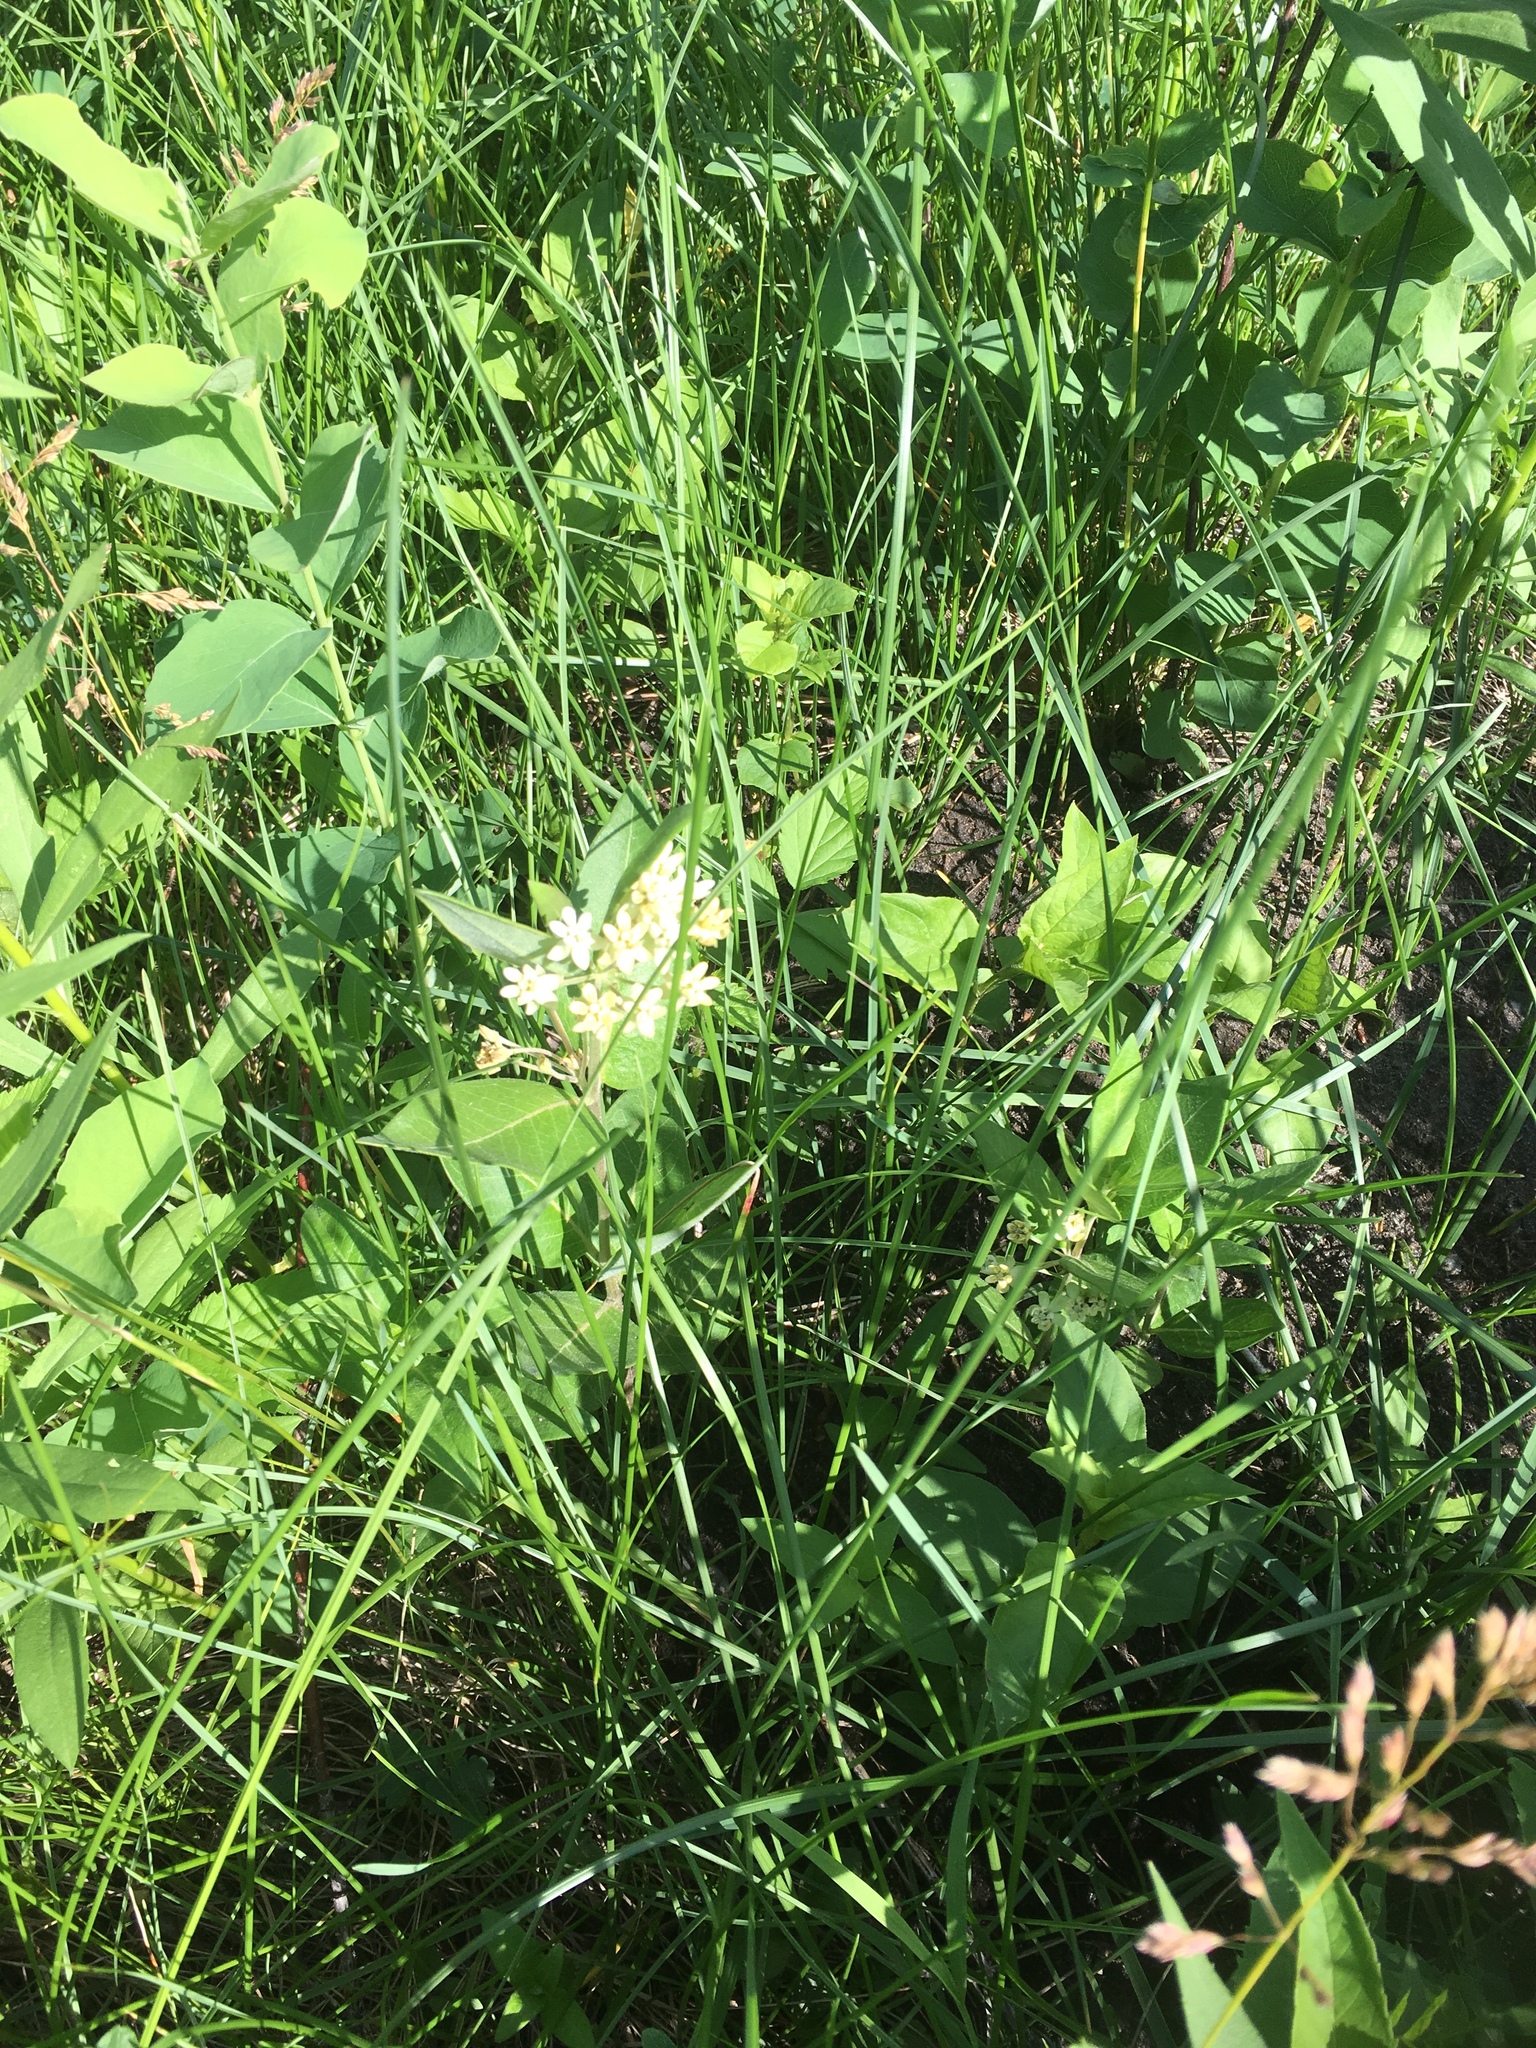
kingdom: Plantae
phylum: Tracheophyta
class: Magnoliopsida
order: Gentianales
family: Apocynaceae
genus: Asclepias
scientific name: Asclepias ovalifolia
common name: Dwarf milkweed
